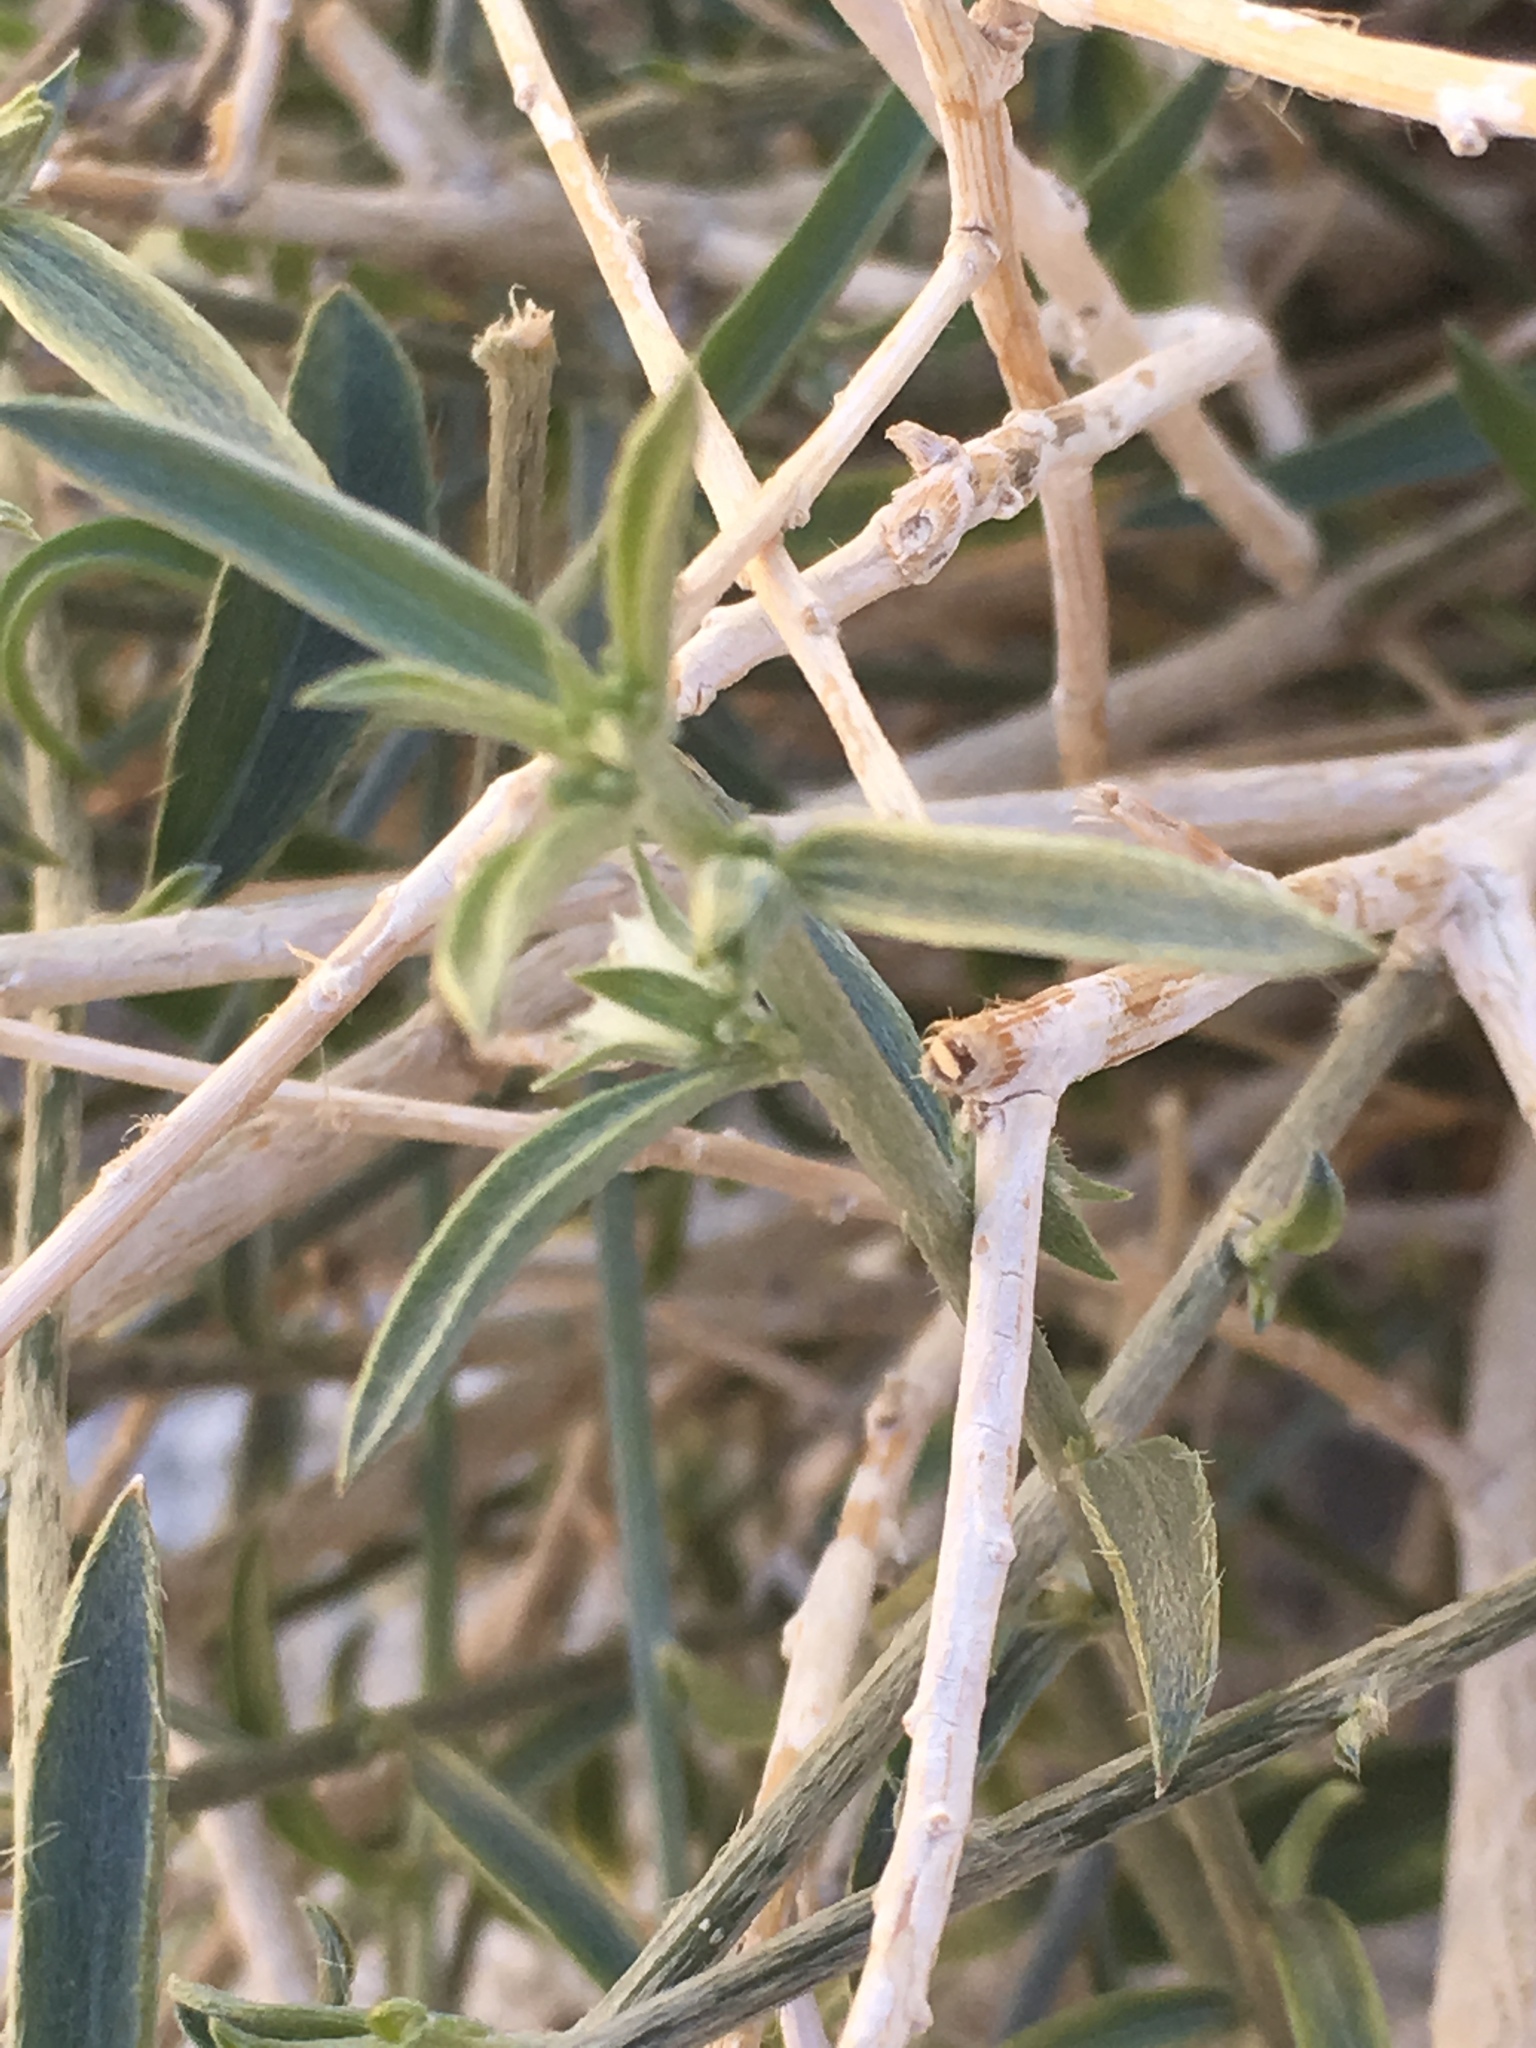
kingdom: Plantae
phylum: Tracheophyta
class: Magnoliopsida
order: Malpighiales
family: Euphorbiaceae
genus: Ditaxis
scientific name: Ditaxis lanceolata
